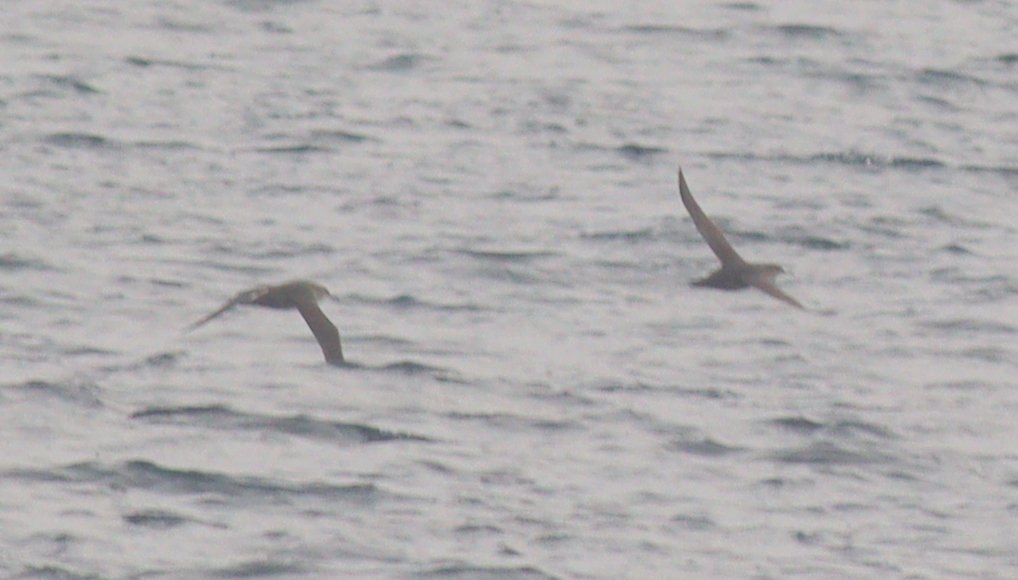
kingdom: Animalia
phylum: Chordata
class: Aves
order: Procellariiformes
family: Procellariidae
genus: Puffinus
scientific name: Puffinus mauretanicus
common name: Balearic shearwater
